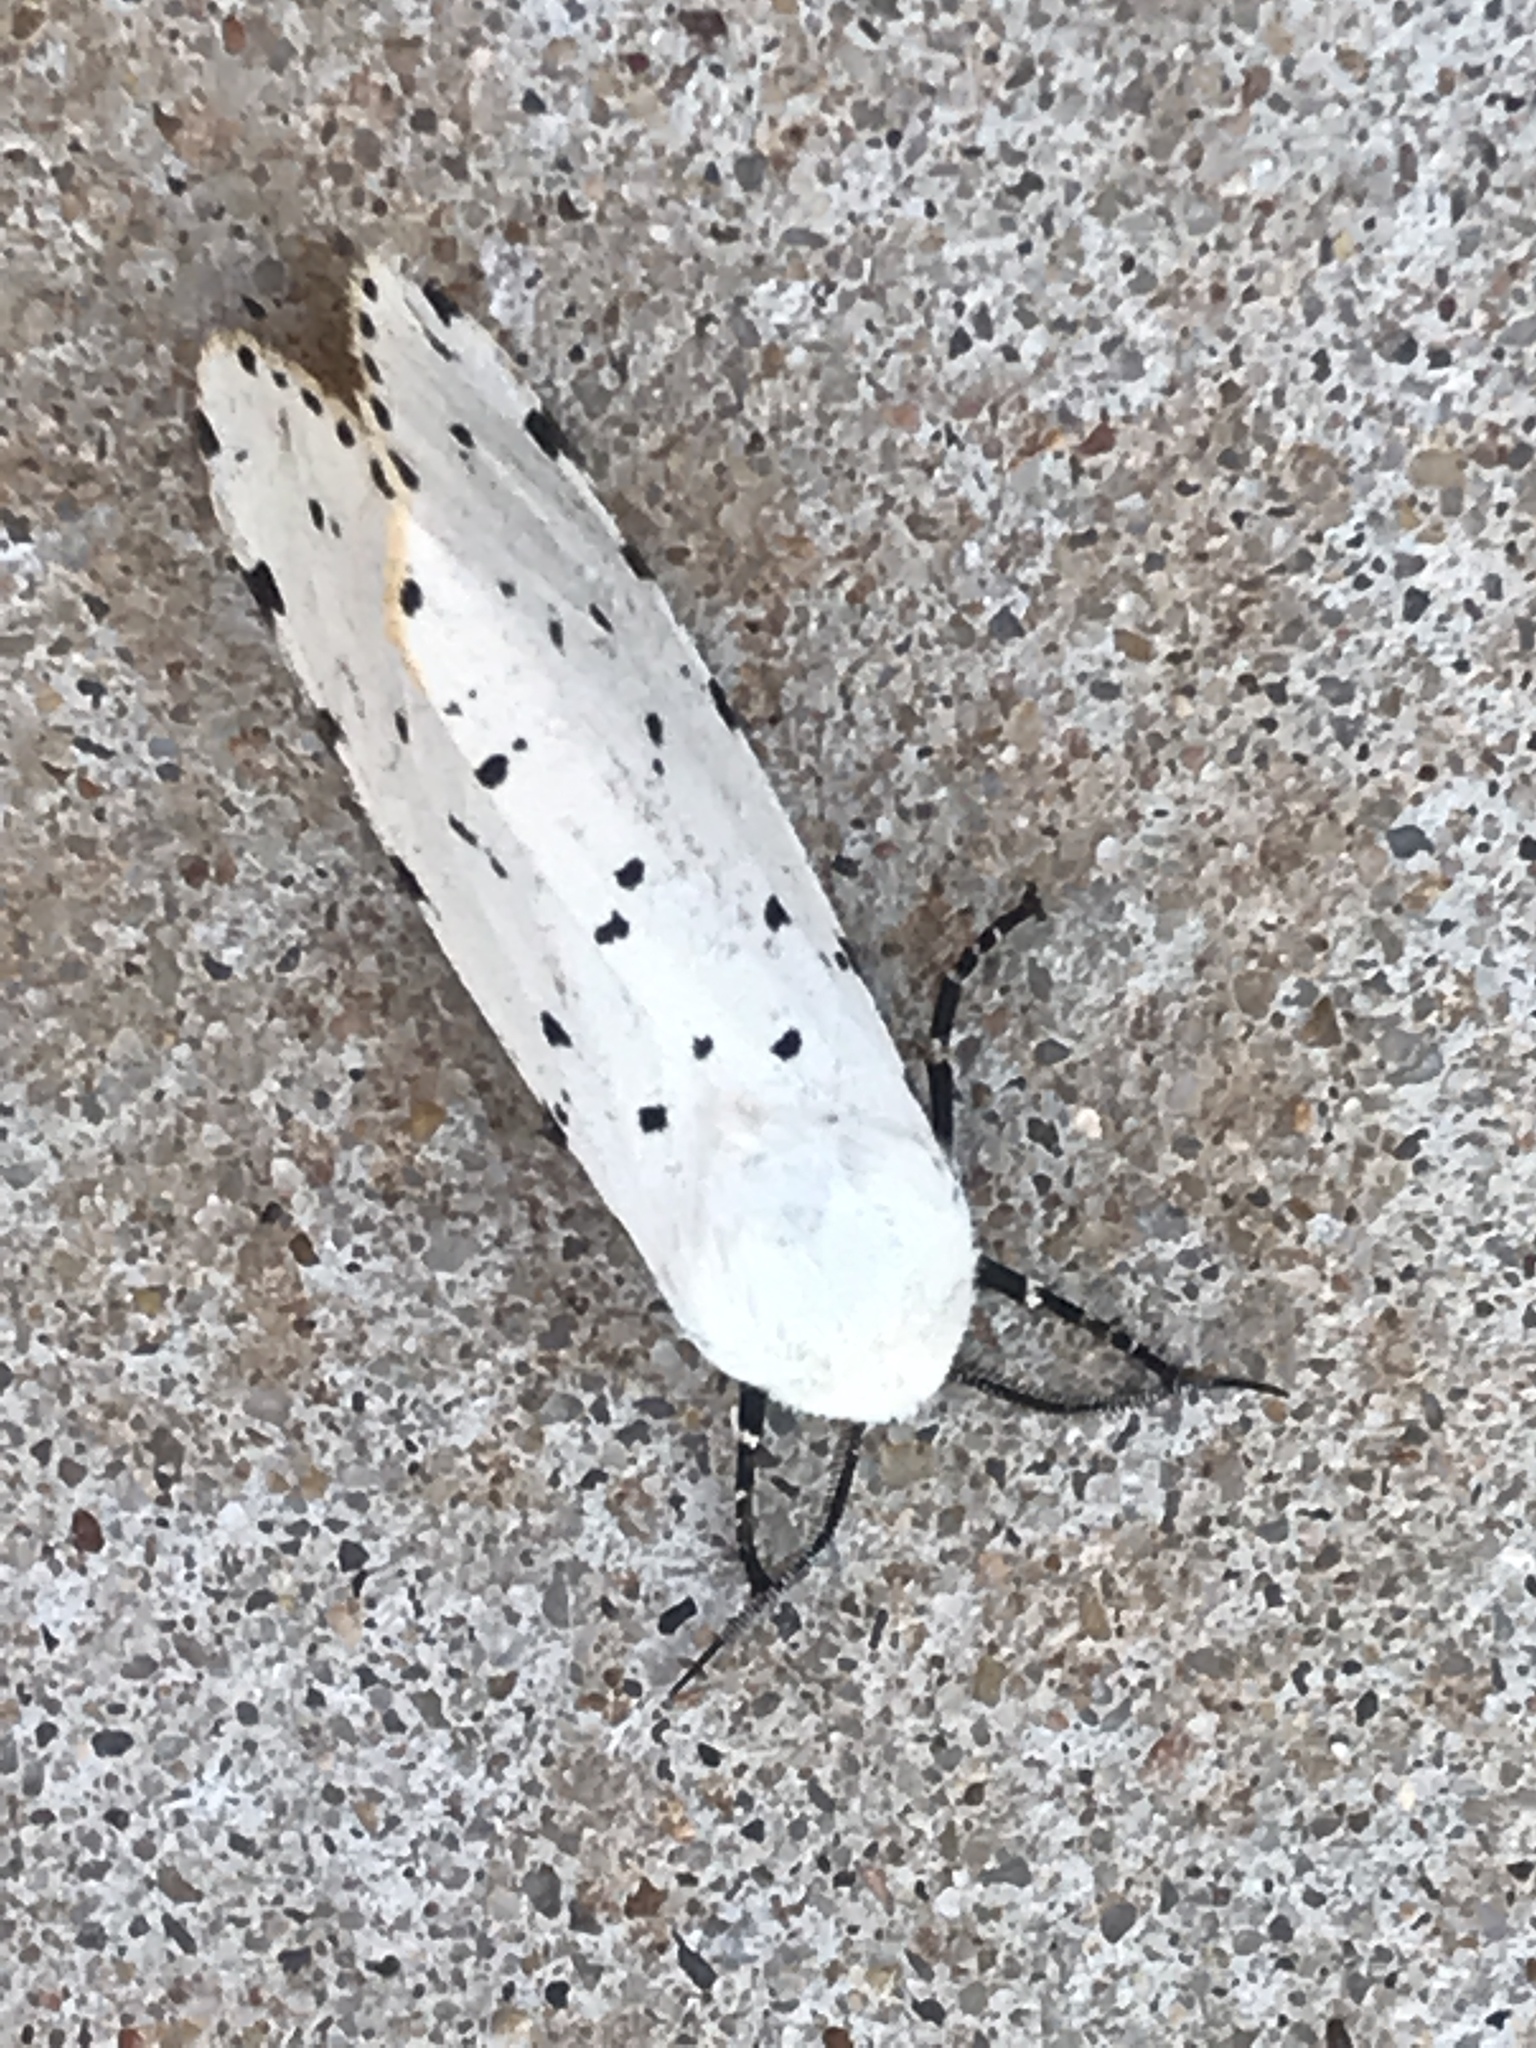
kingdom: Animalia
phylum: Arthropoda
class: Insecta
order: Lepidoptera
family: Erebidae
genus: Estigmene
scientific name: Estigmene acrea
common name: Salt marsh moth
